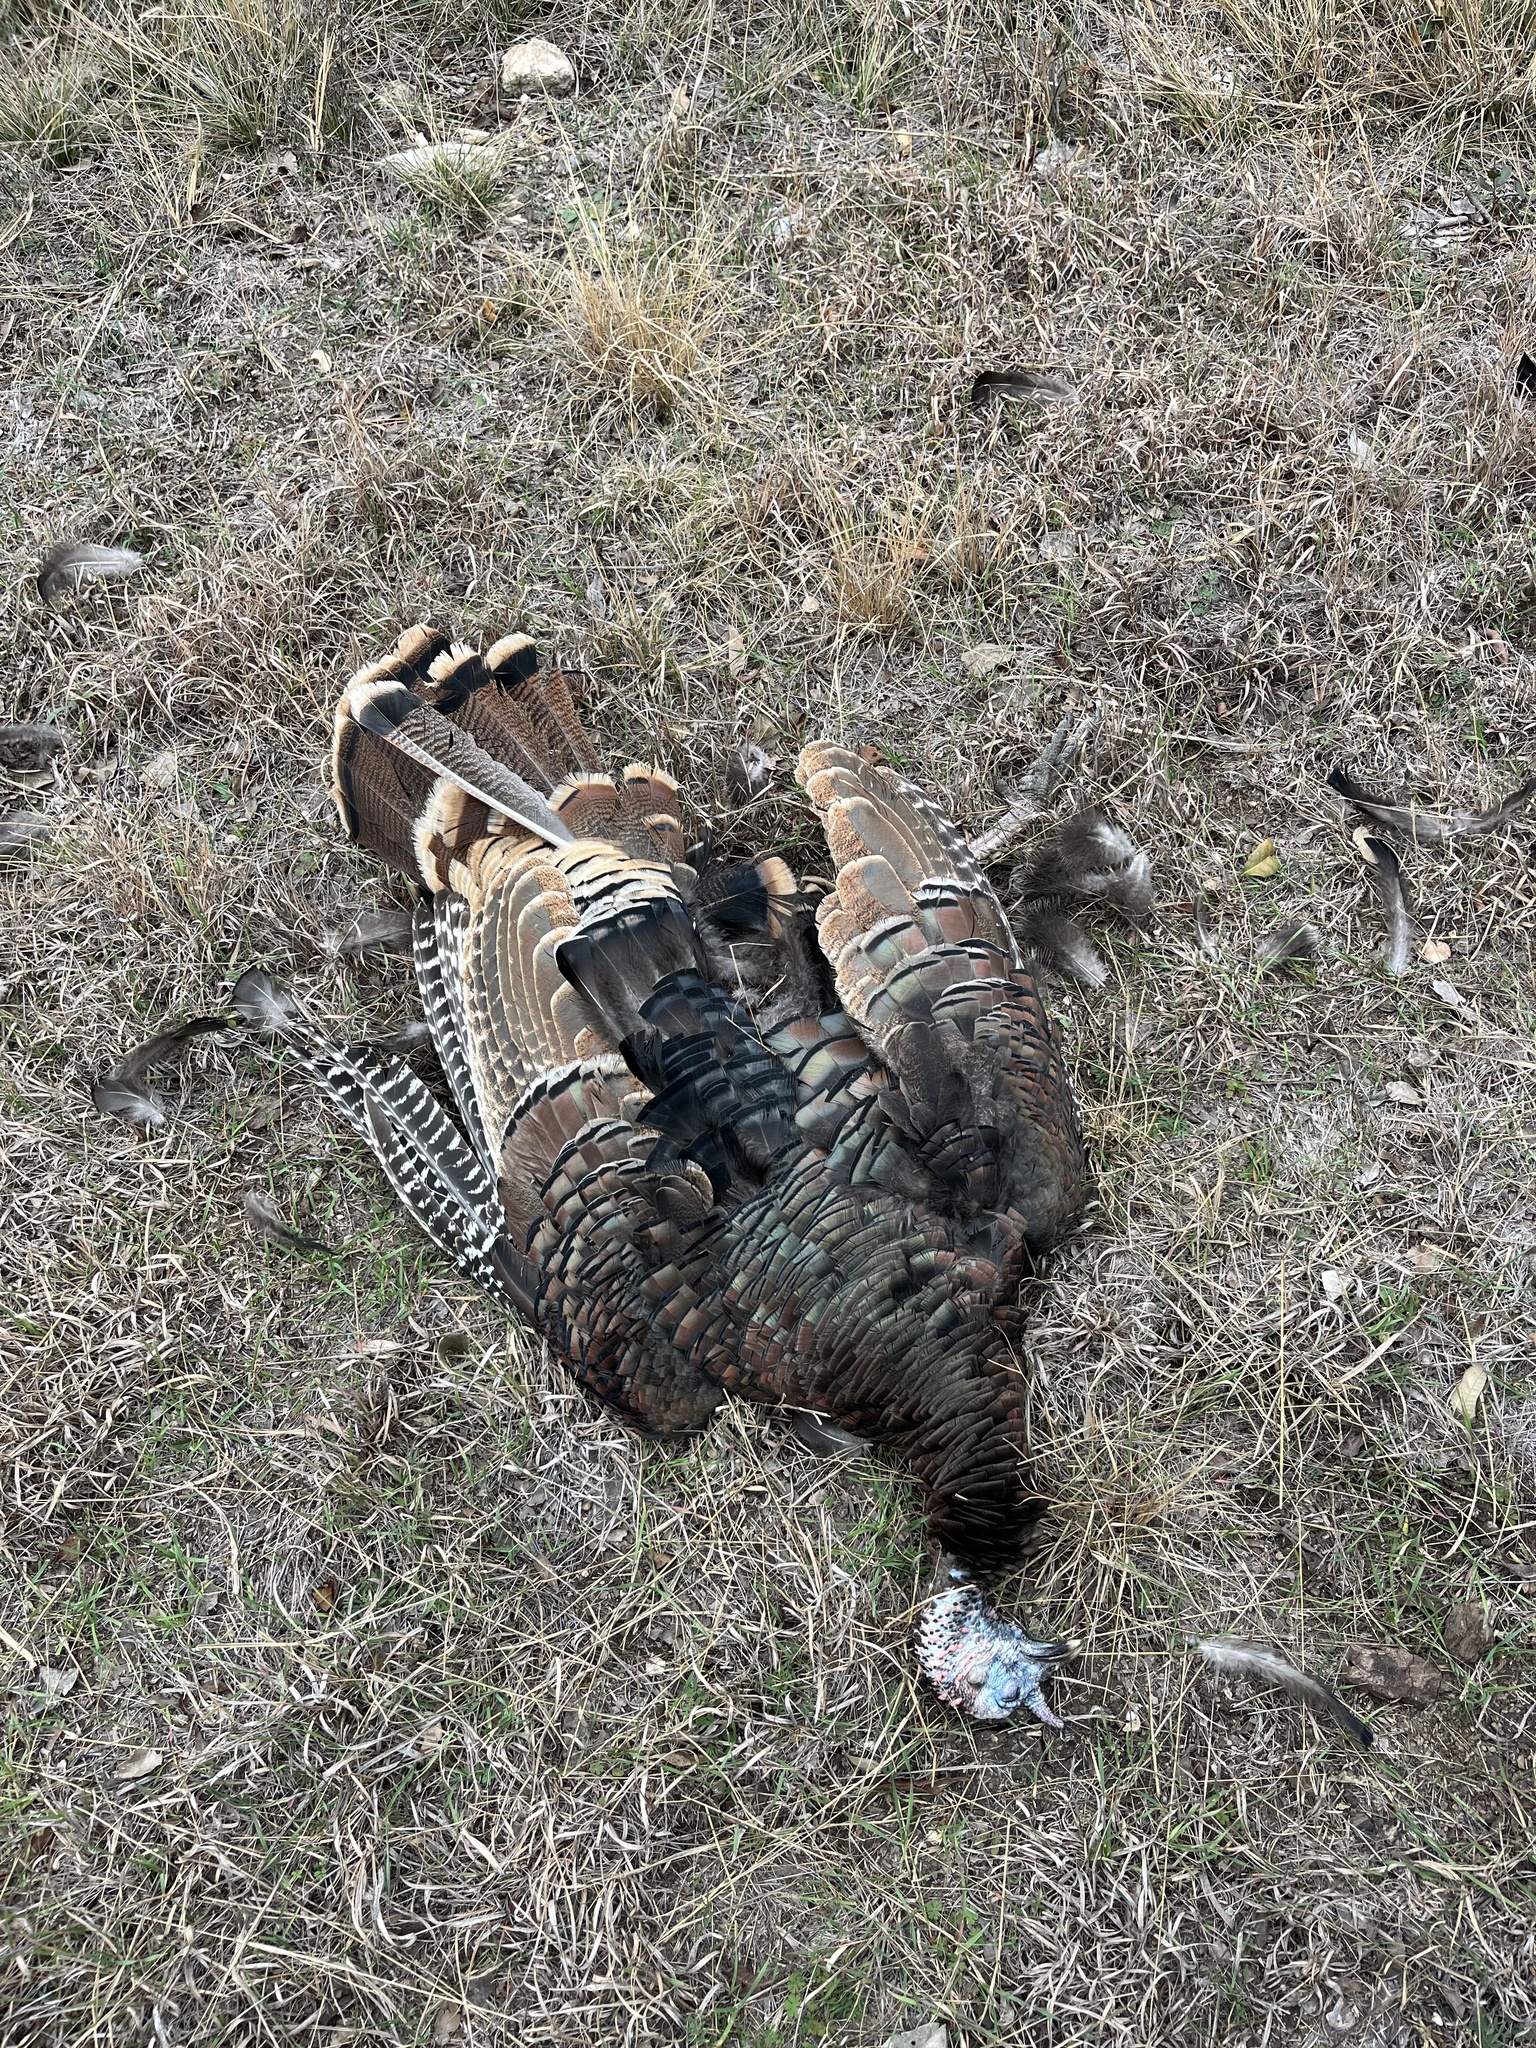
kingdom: Animalia
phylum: Chordata
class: Aves
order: Galliformes
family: Phasianidae
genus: Meleagris
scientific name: Meleagris gallopavo
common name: Wild turkey
